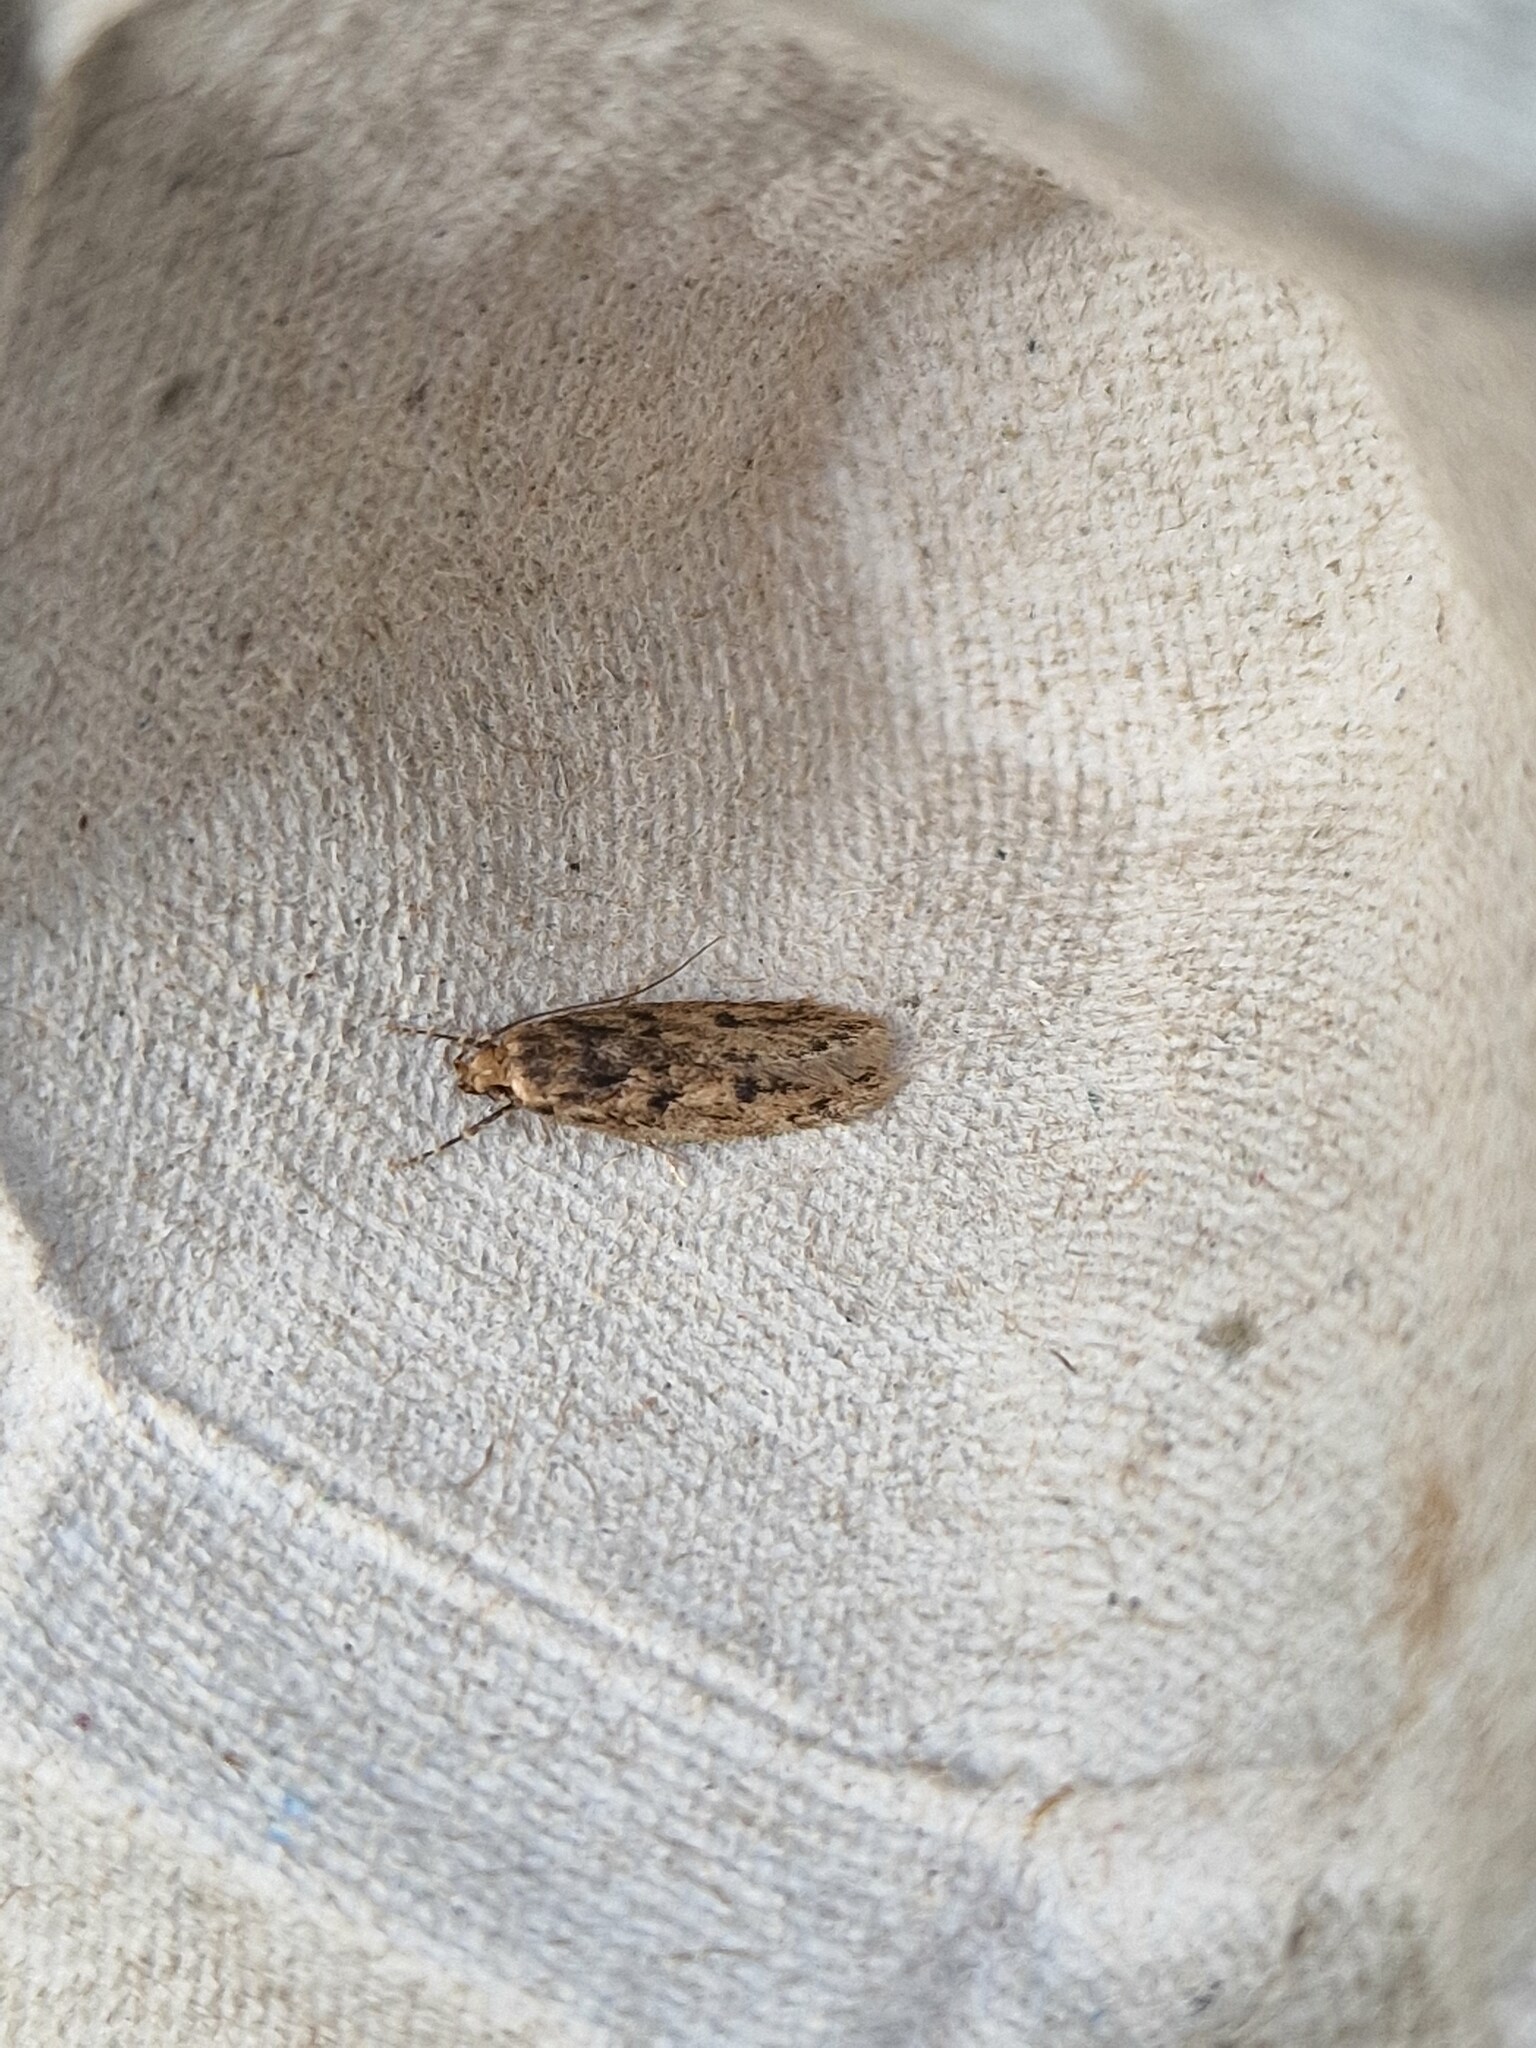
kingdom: Animalia
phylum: Arthropoda
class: Insecta
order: Lepidoptera
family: Oecophoridae
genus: Hofmannophila
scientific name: Hofmannophila pseudospretella
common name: Brown house moth
